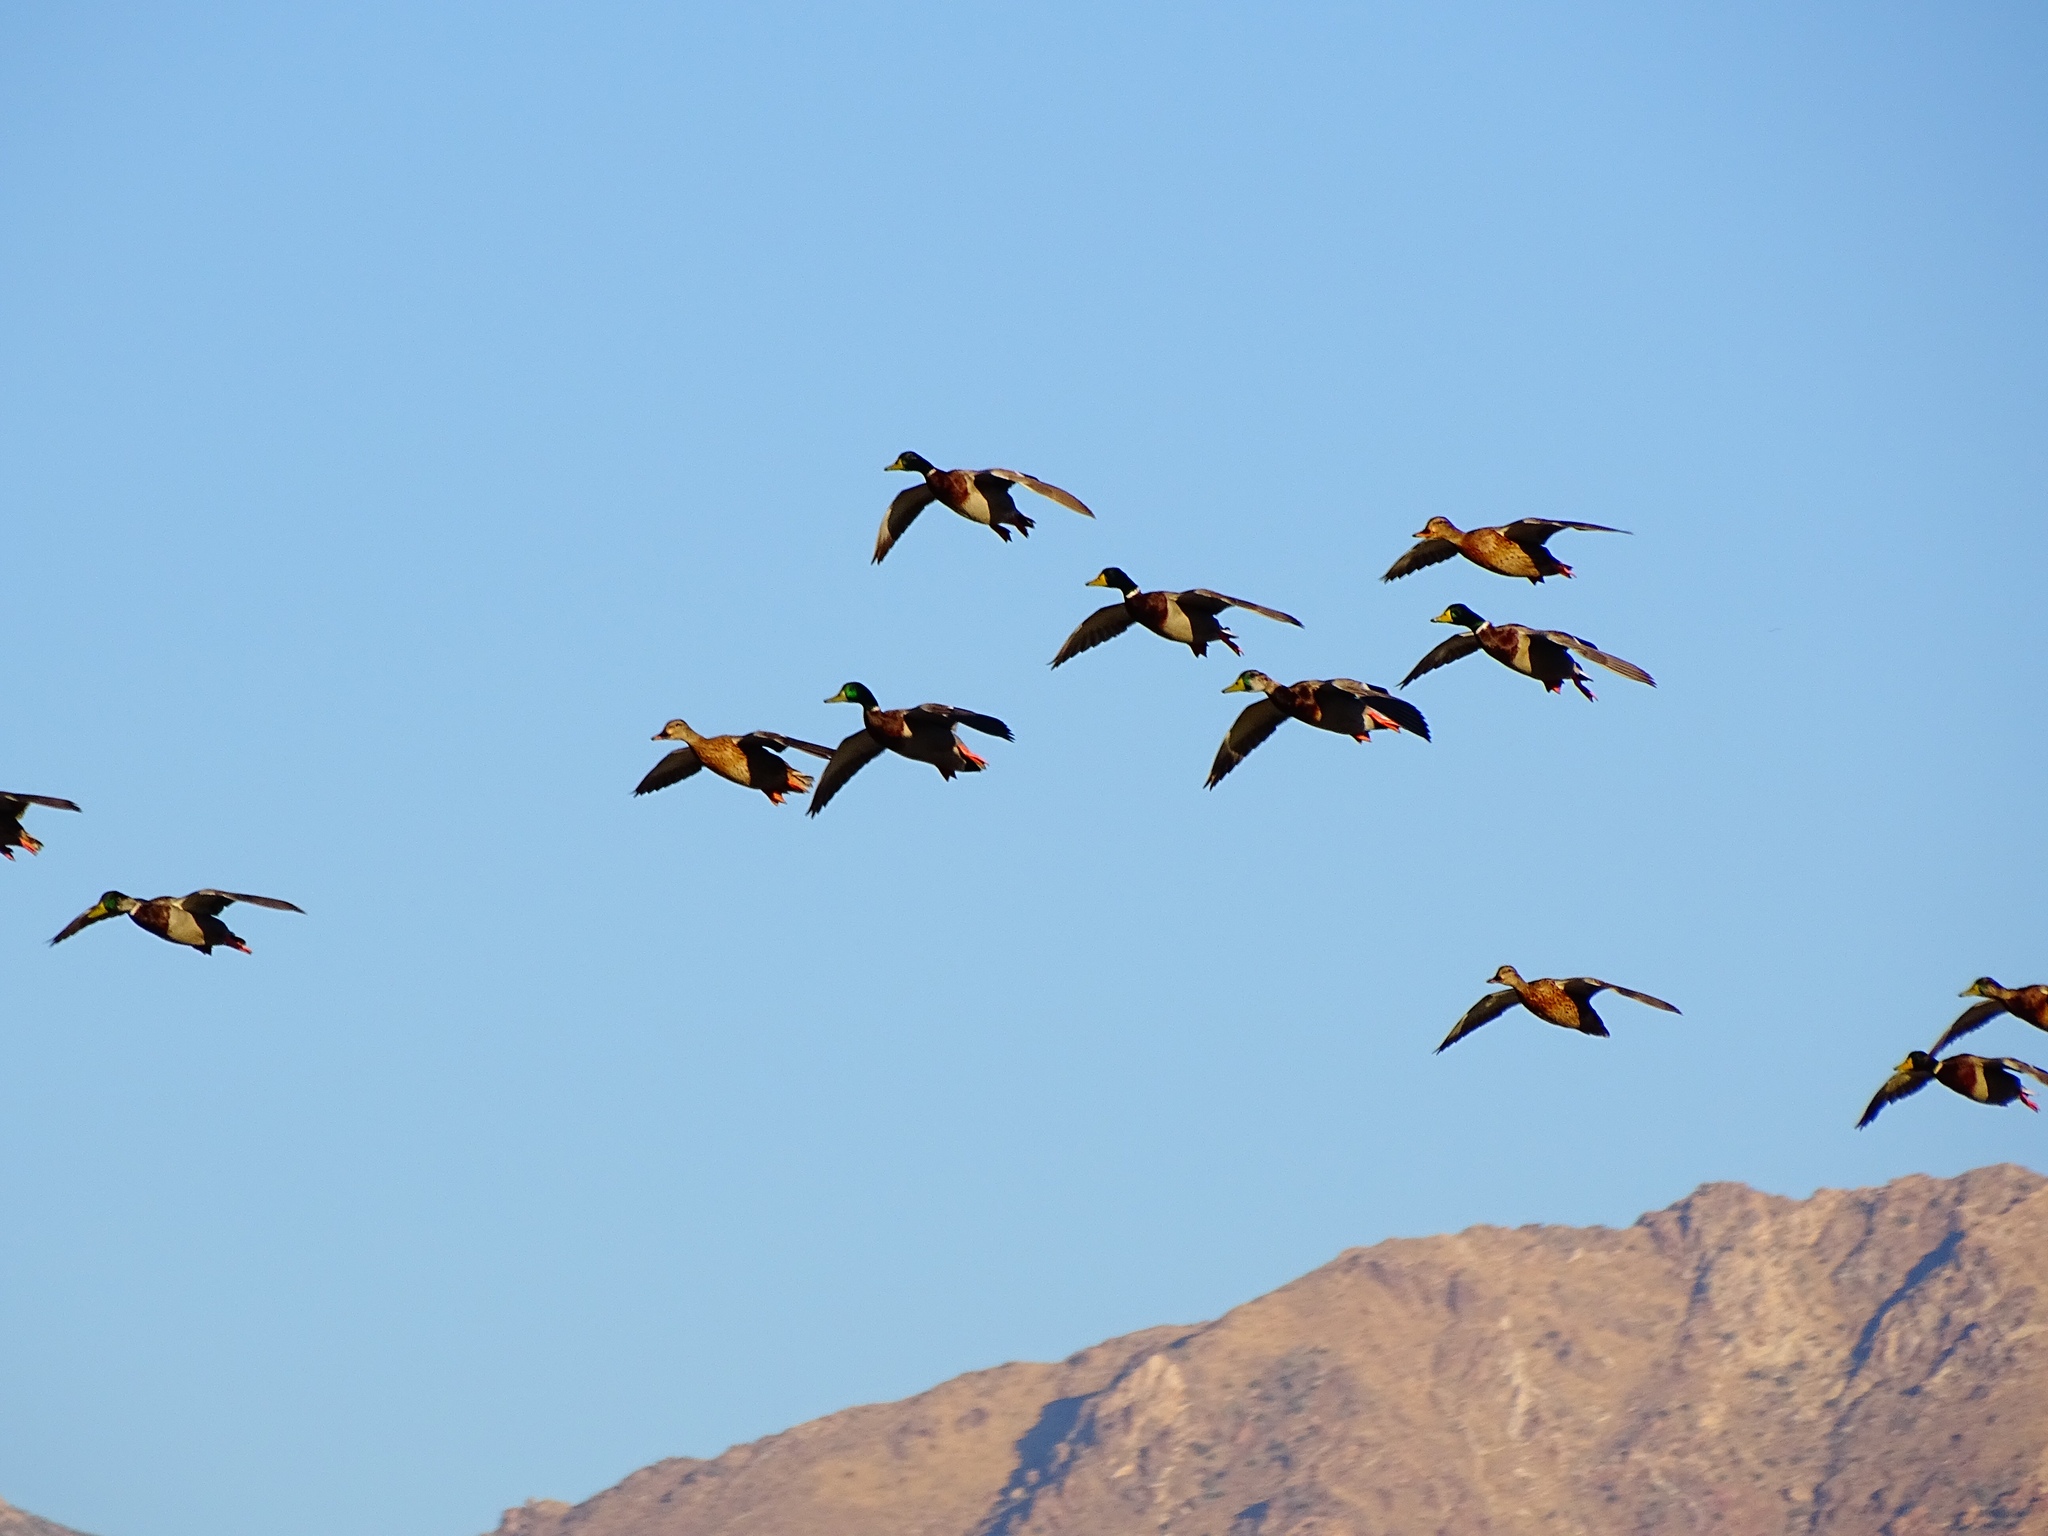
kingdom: Animalia
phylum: Chordata
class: Aves
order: Anseriformes
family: Anatidae
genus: Anas
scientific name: Anas platyrhynchos
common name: Mallard
